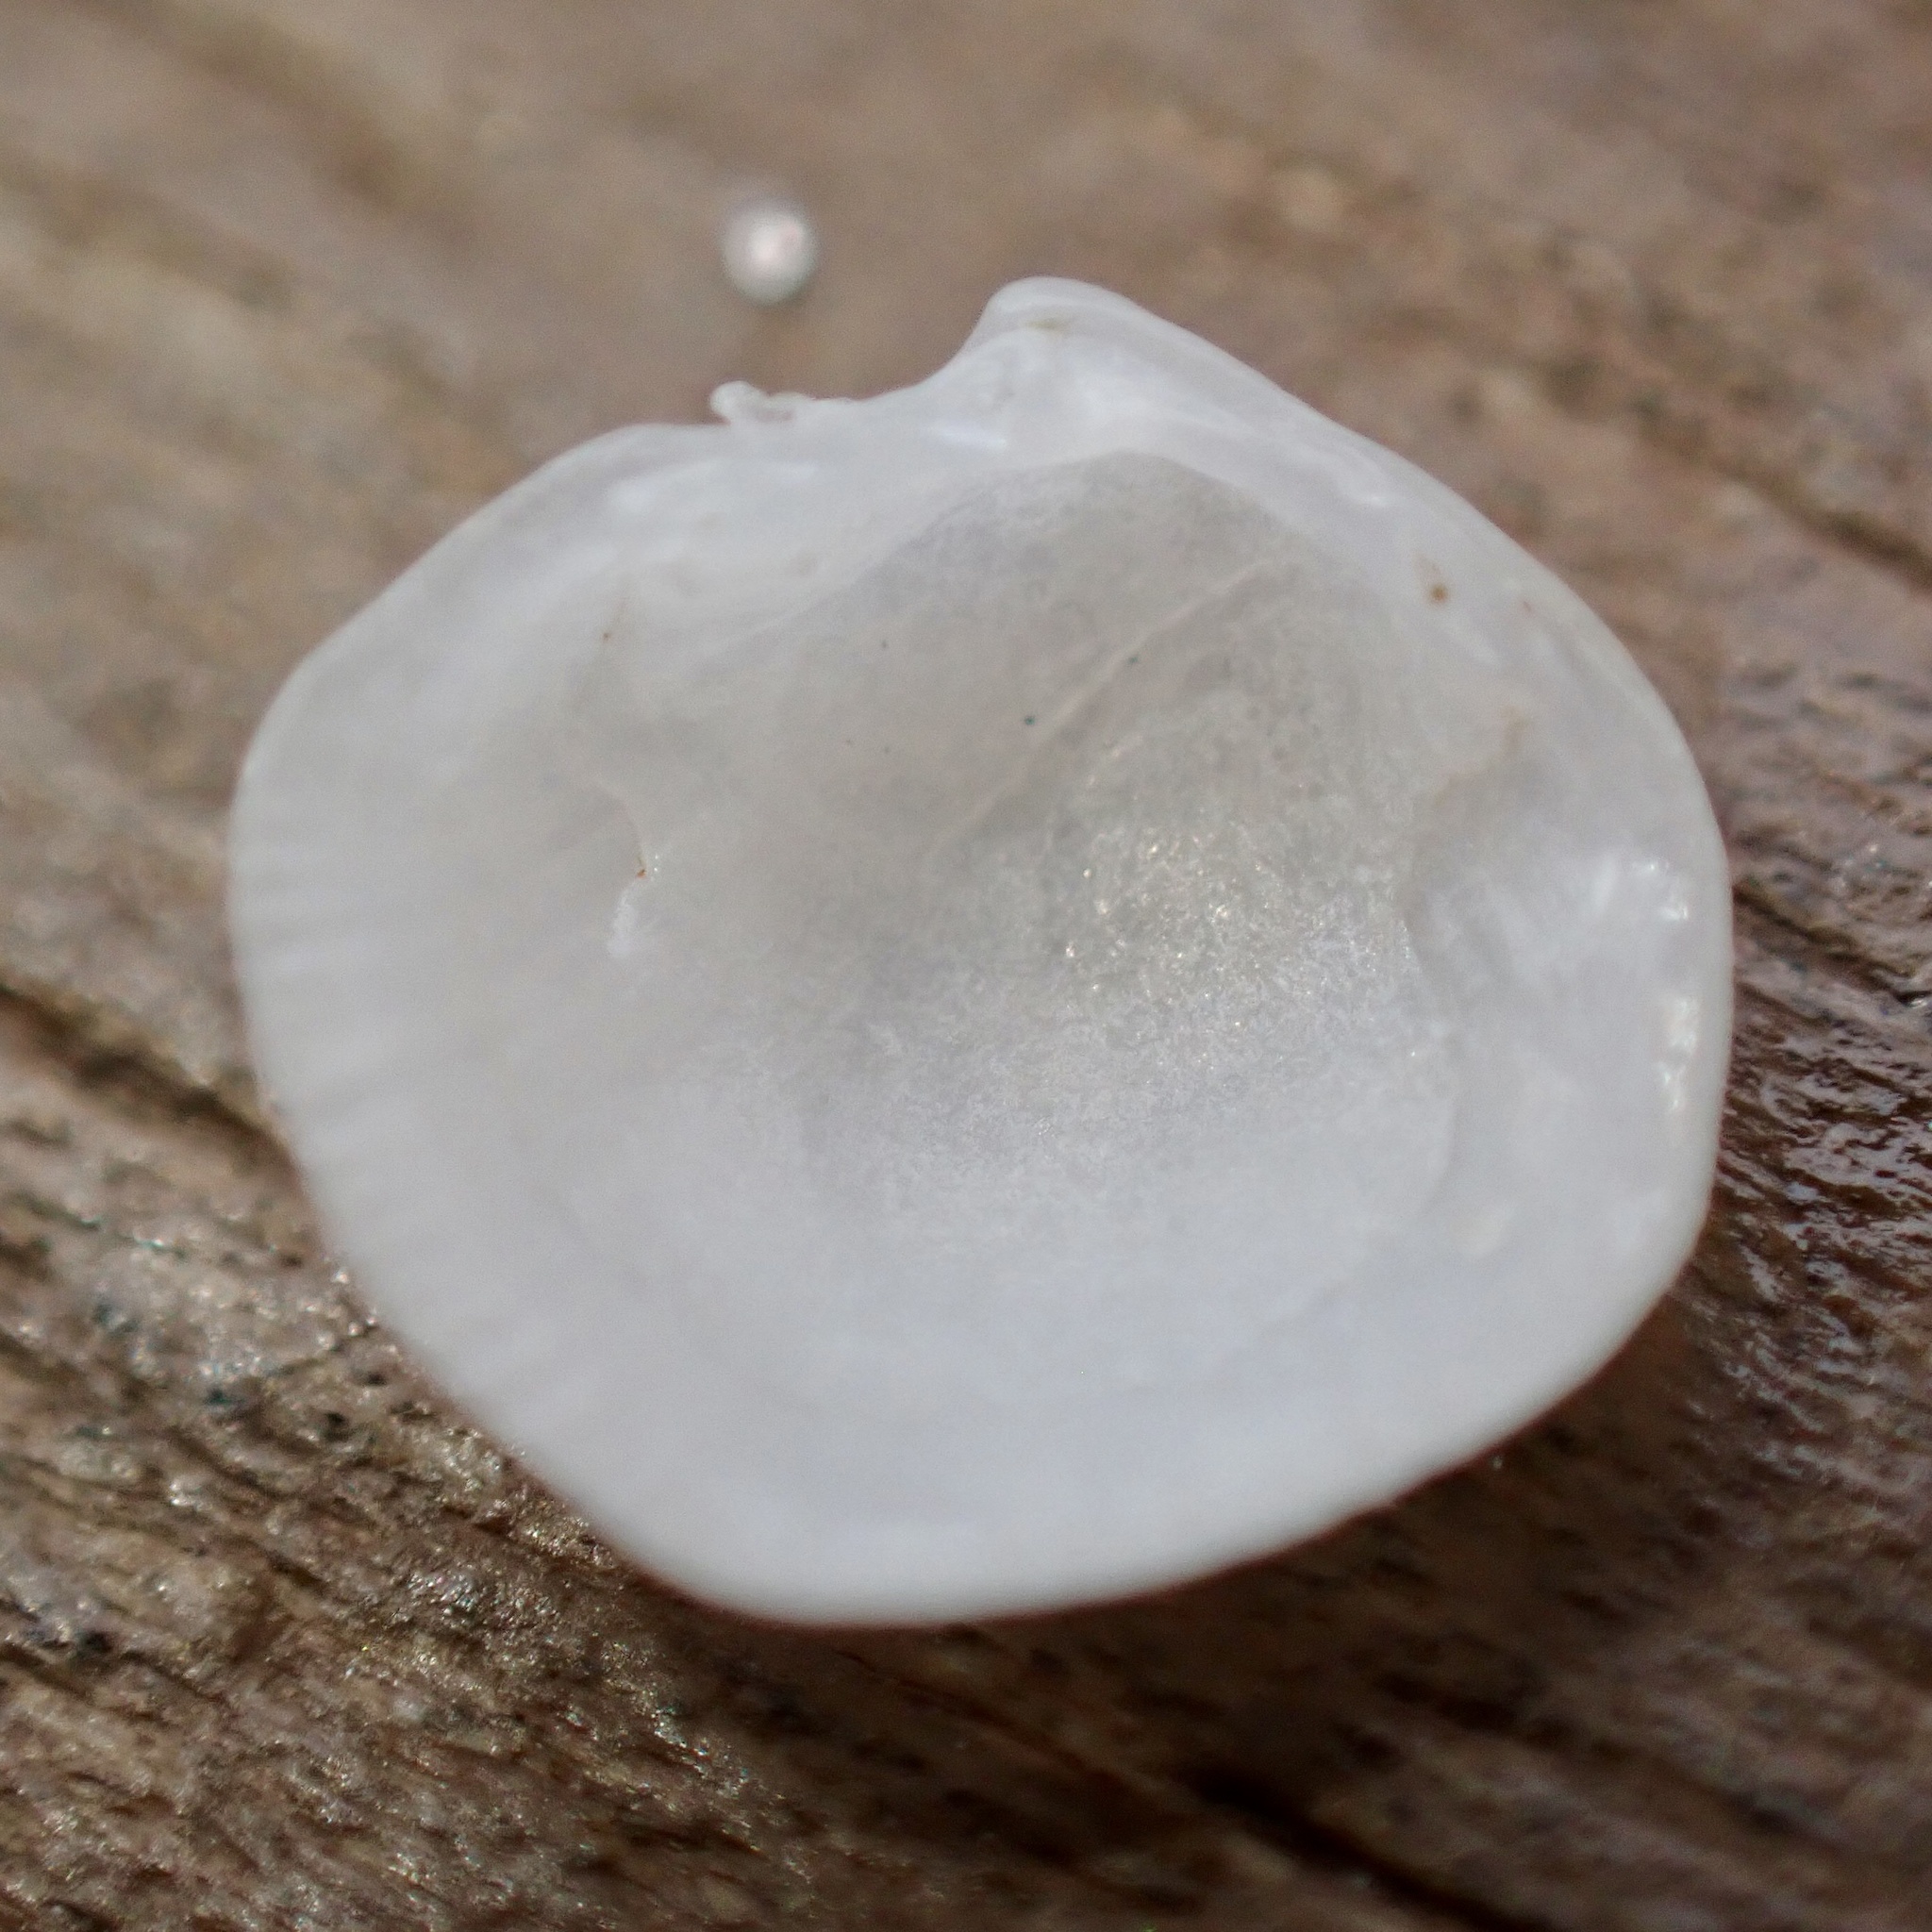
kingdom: Animalia
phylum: Mollusca
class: Bivalvia
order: Lucinida
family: Lucinidae
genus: Parvilucina
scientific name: Parvilucina crenella
